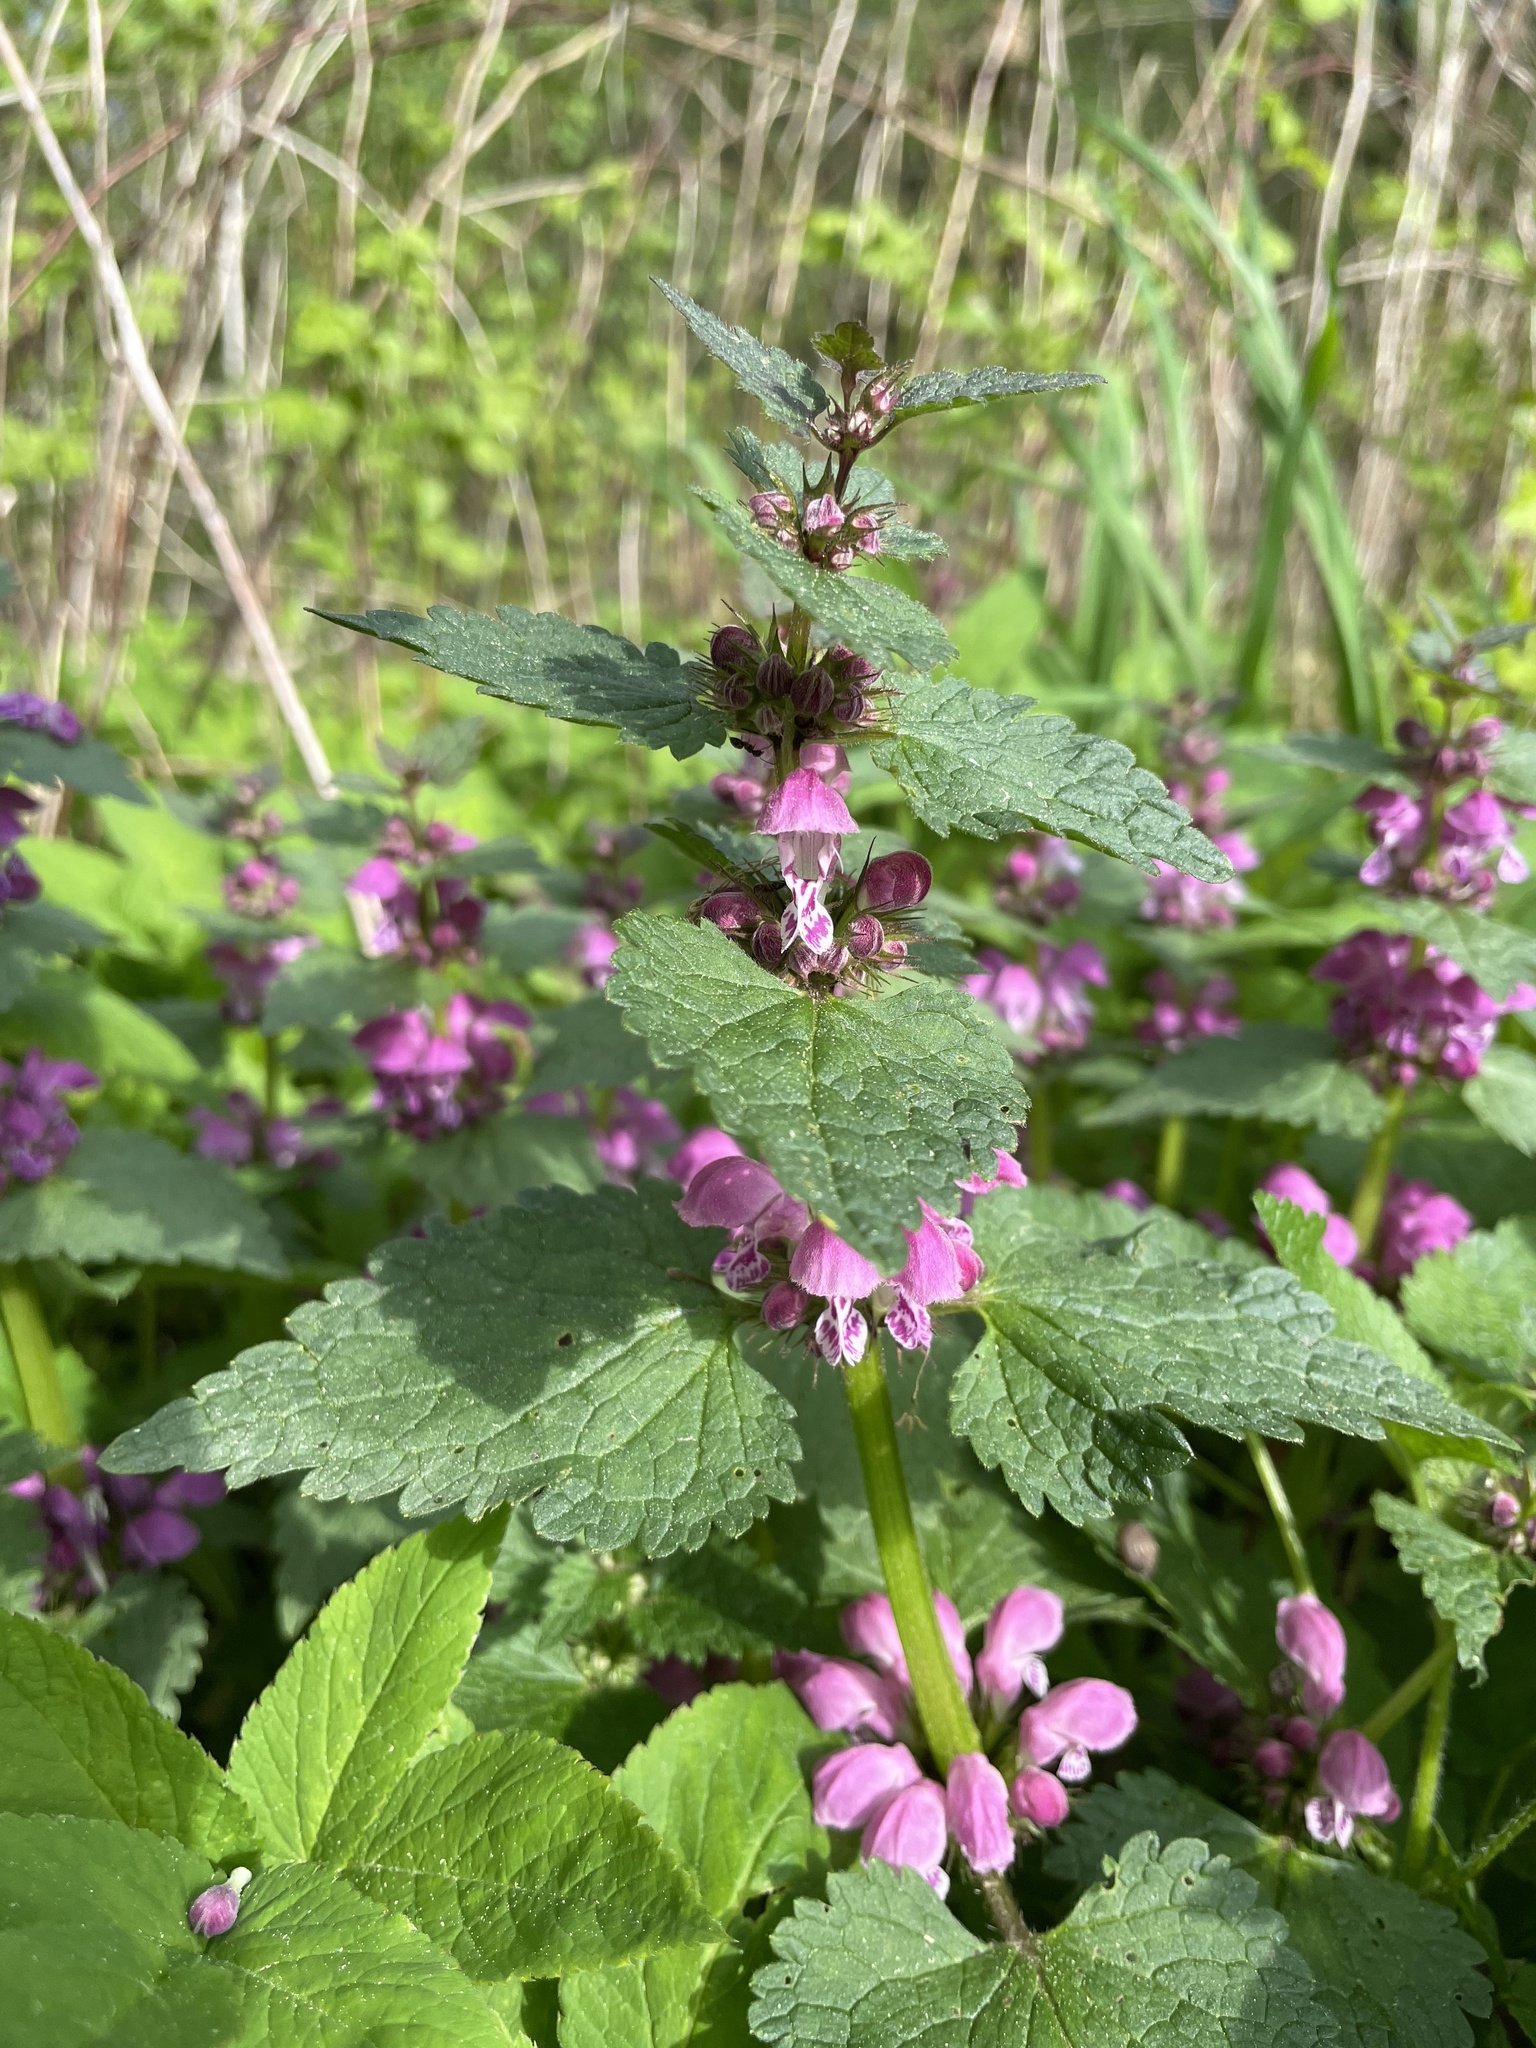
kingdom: Plantae
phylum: Tracheophyta
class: Magnoliopsida
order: Lamiales
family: Lamiaceae
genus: Lamium
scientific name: Lamium maculatum
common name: Spotted dead-nettle
